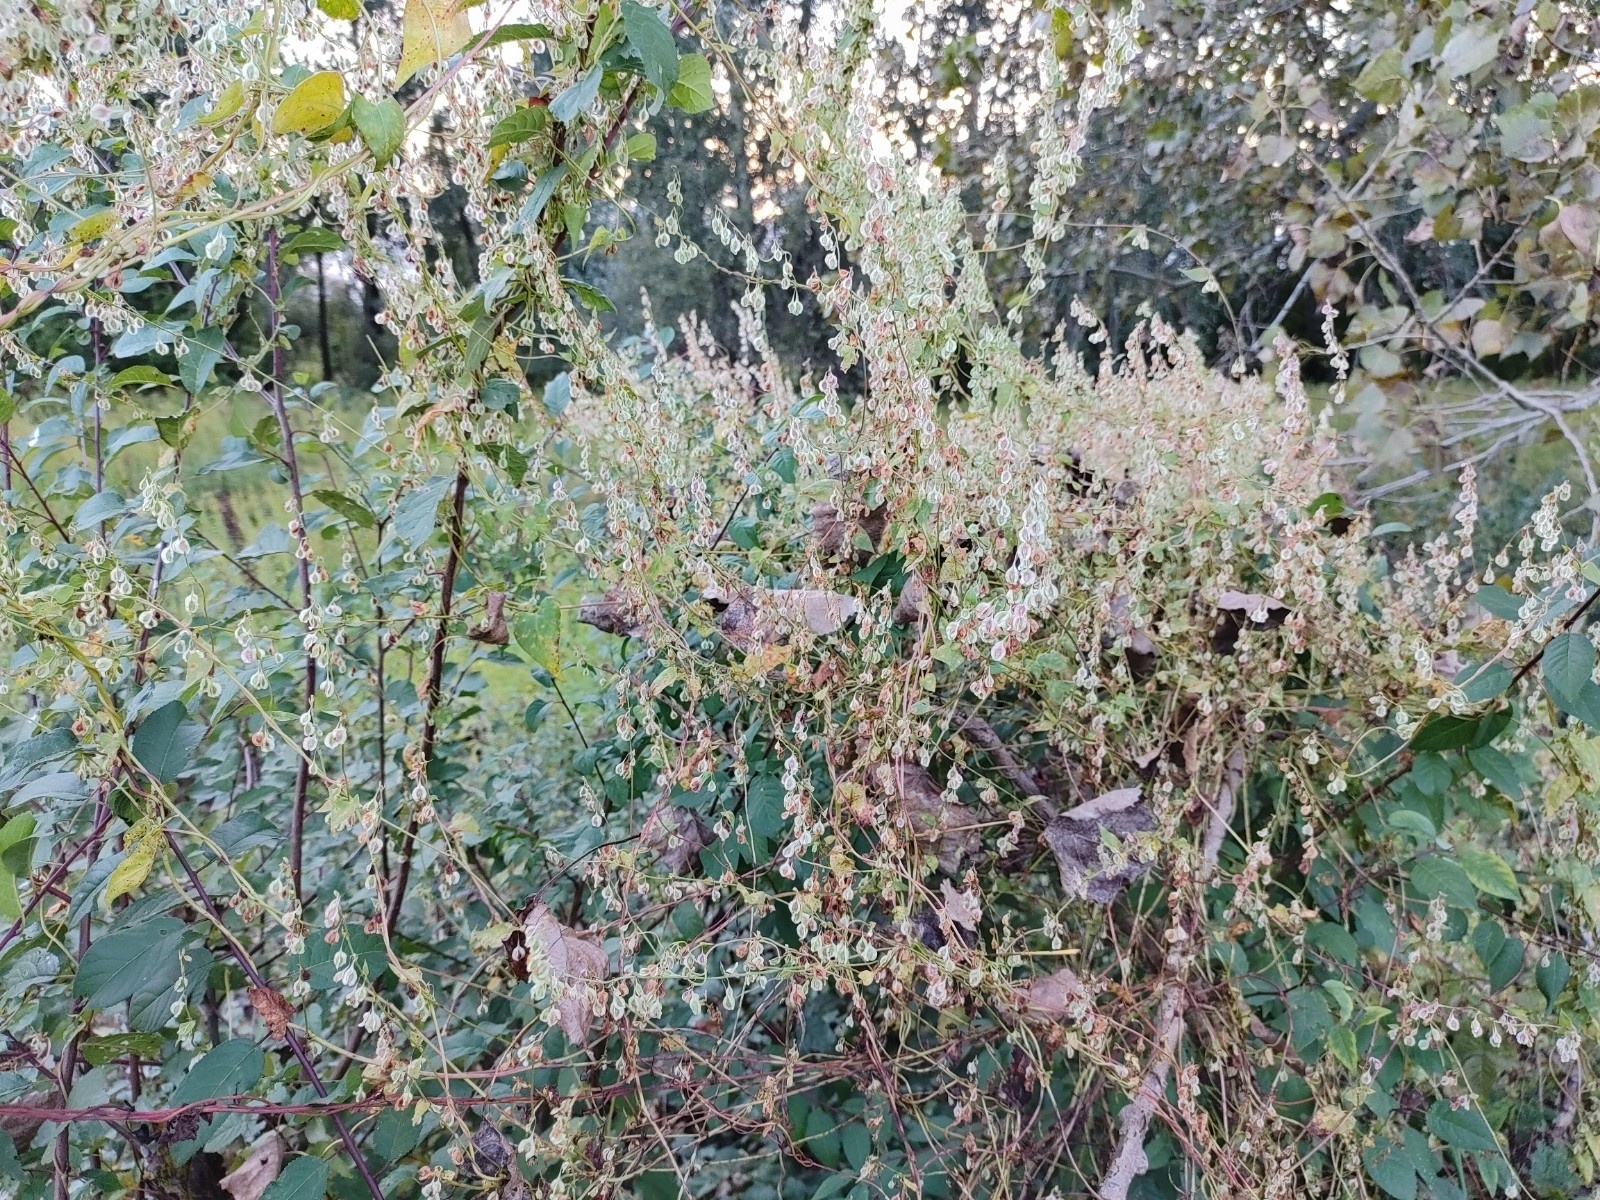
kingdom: Plantae
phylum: Tracheophyta
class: Magnoliopsida
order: Caryophyllales
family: Polygonaceae
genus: Fallopia
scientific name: Fallopia dumetorum
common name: Copse-bindweed
